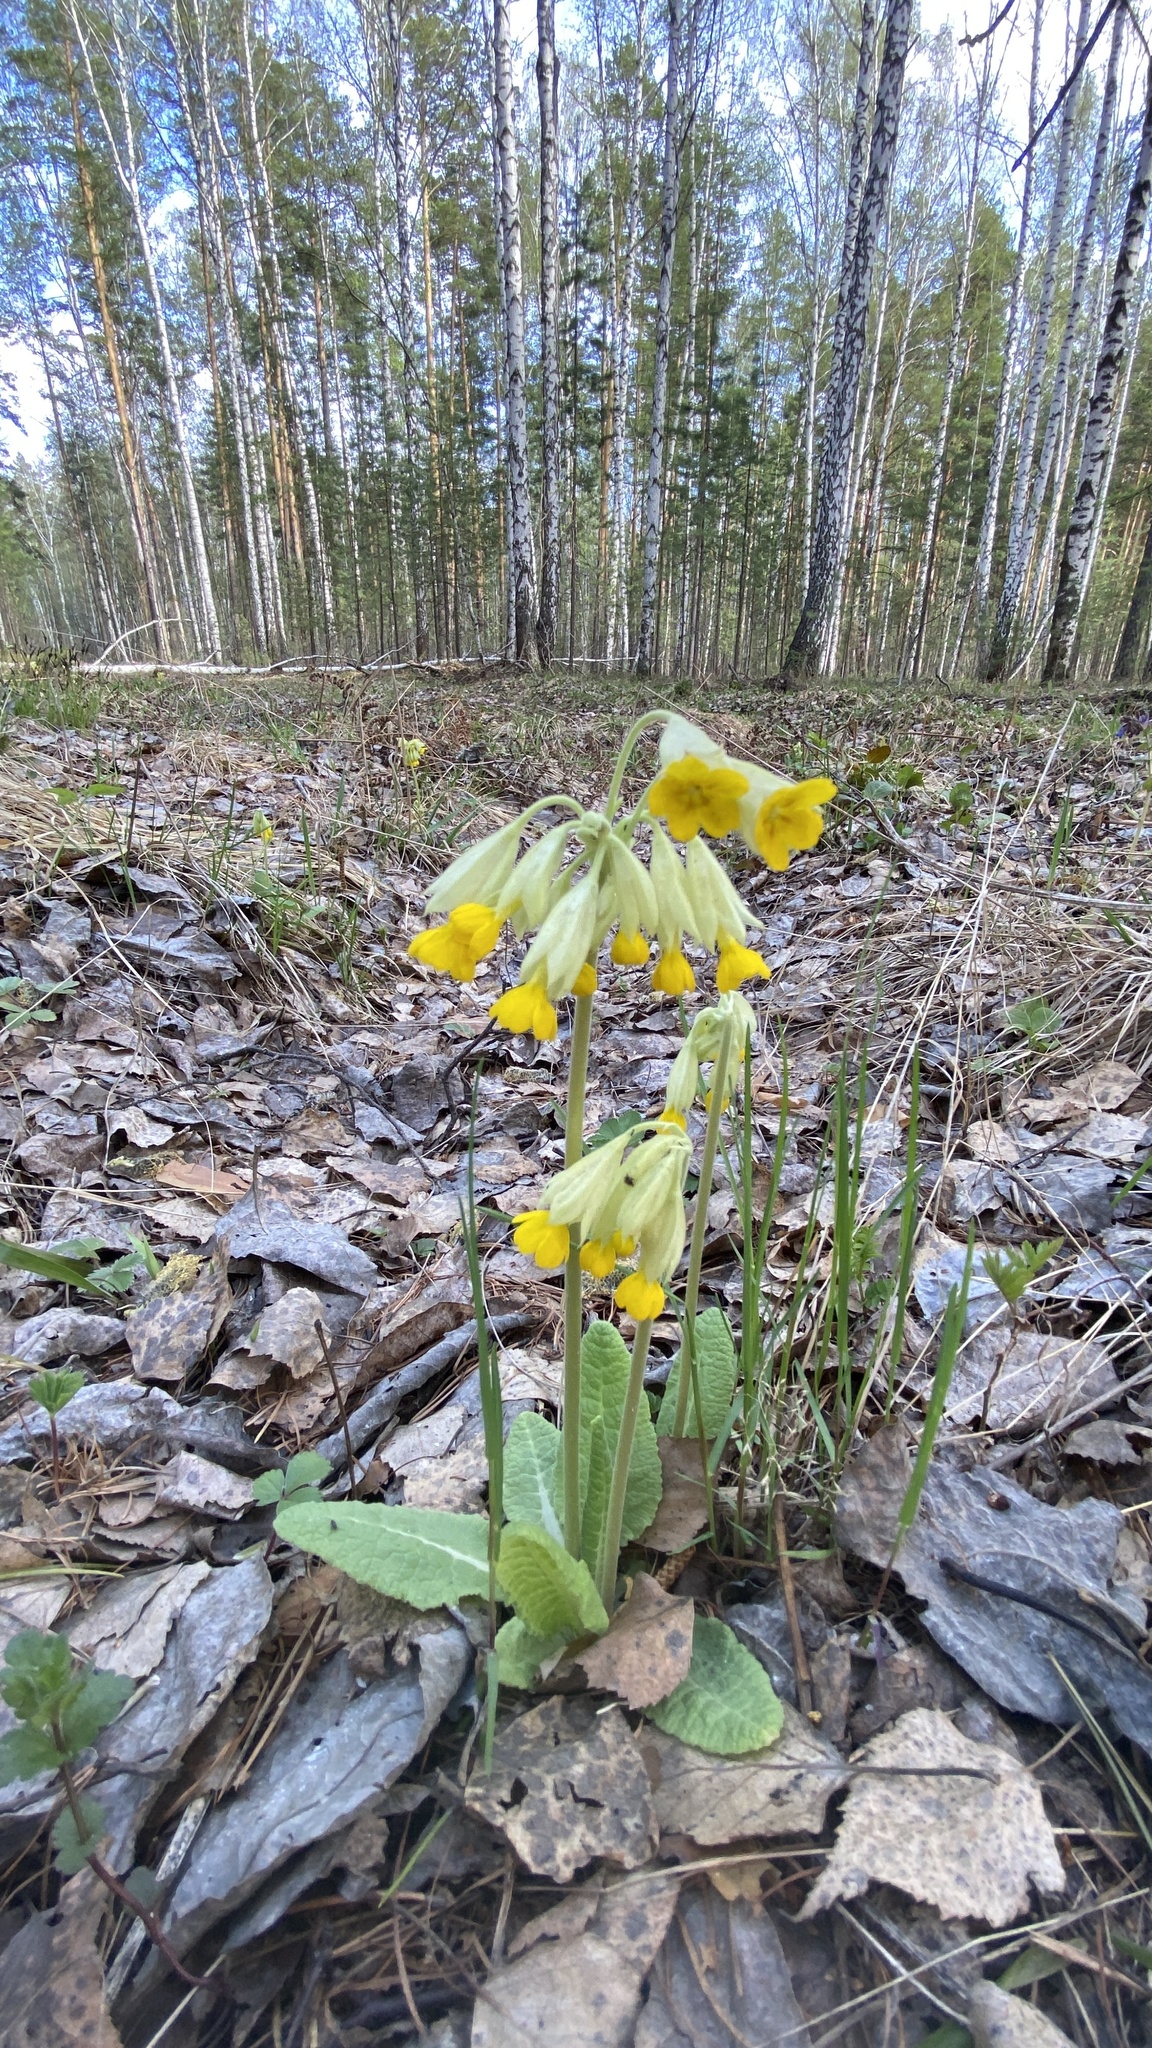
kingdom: Plantae
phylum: Tracheophyta
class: Magnoliopsida
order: Ericales
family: Primulaceae
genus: Primula
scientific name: Primula veris
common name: Cowslip
